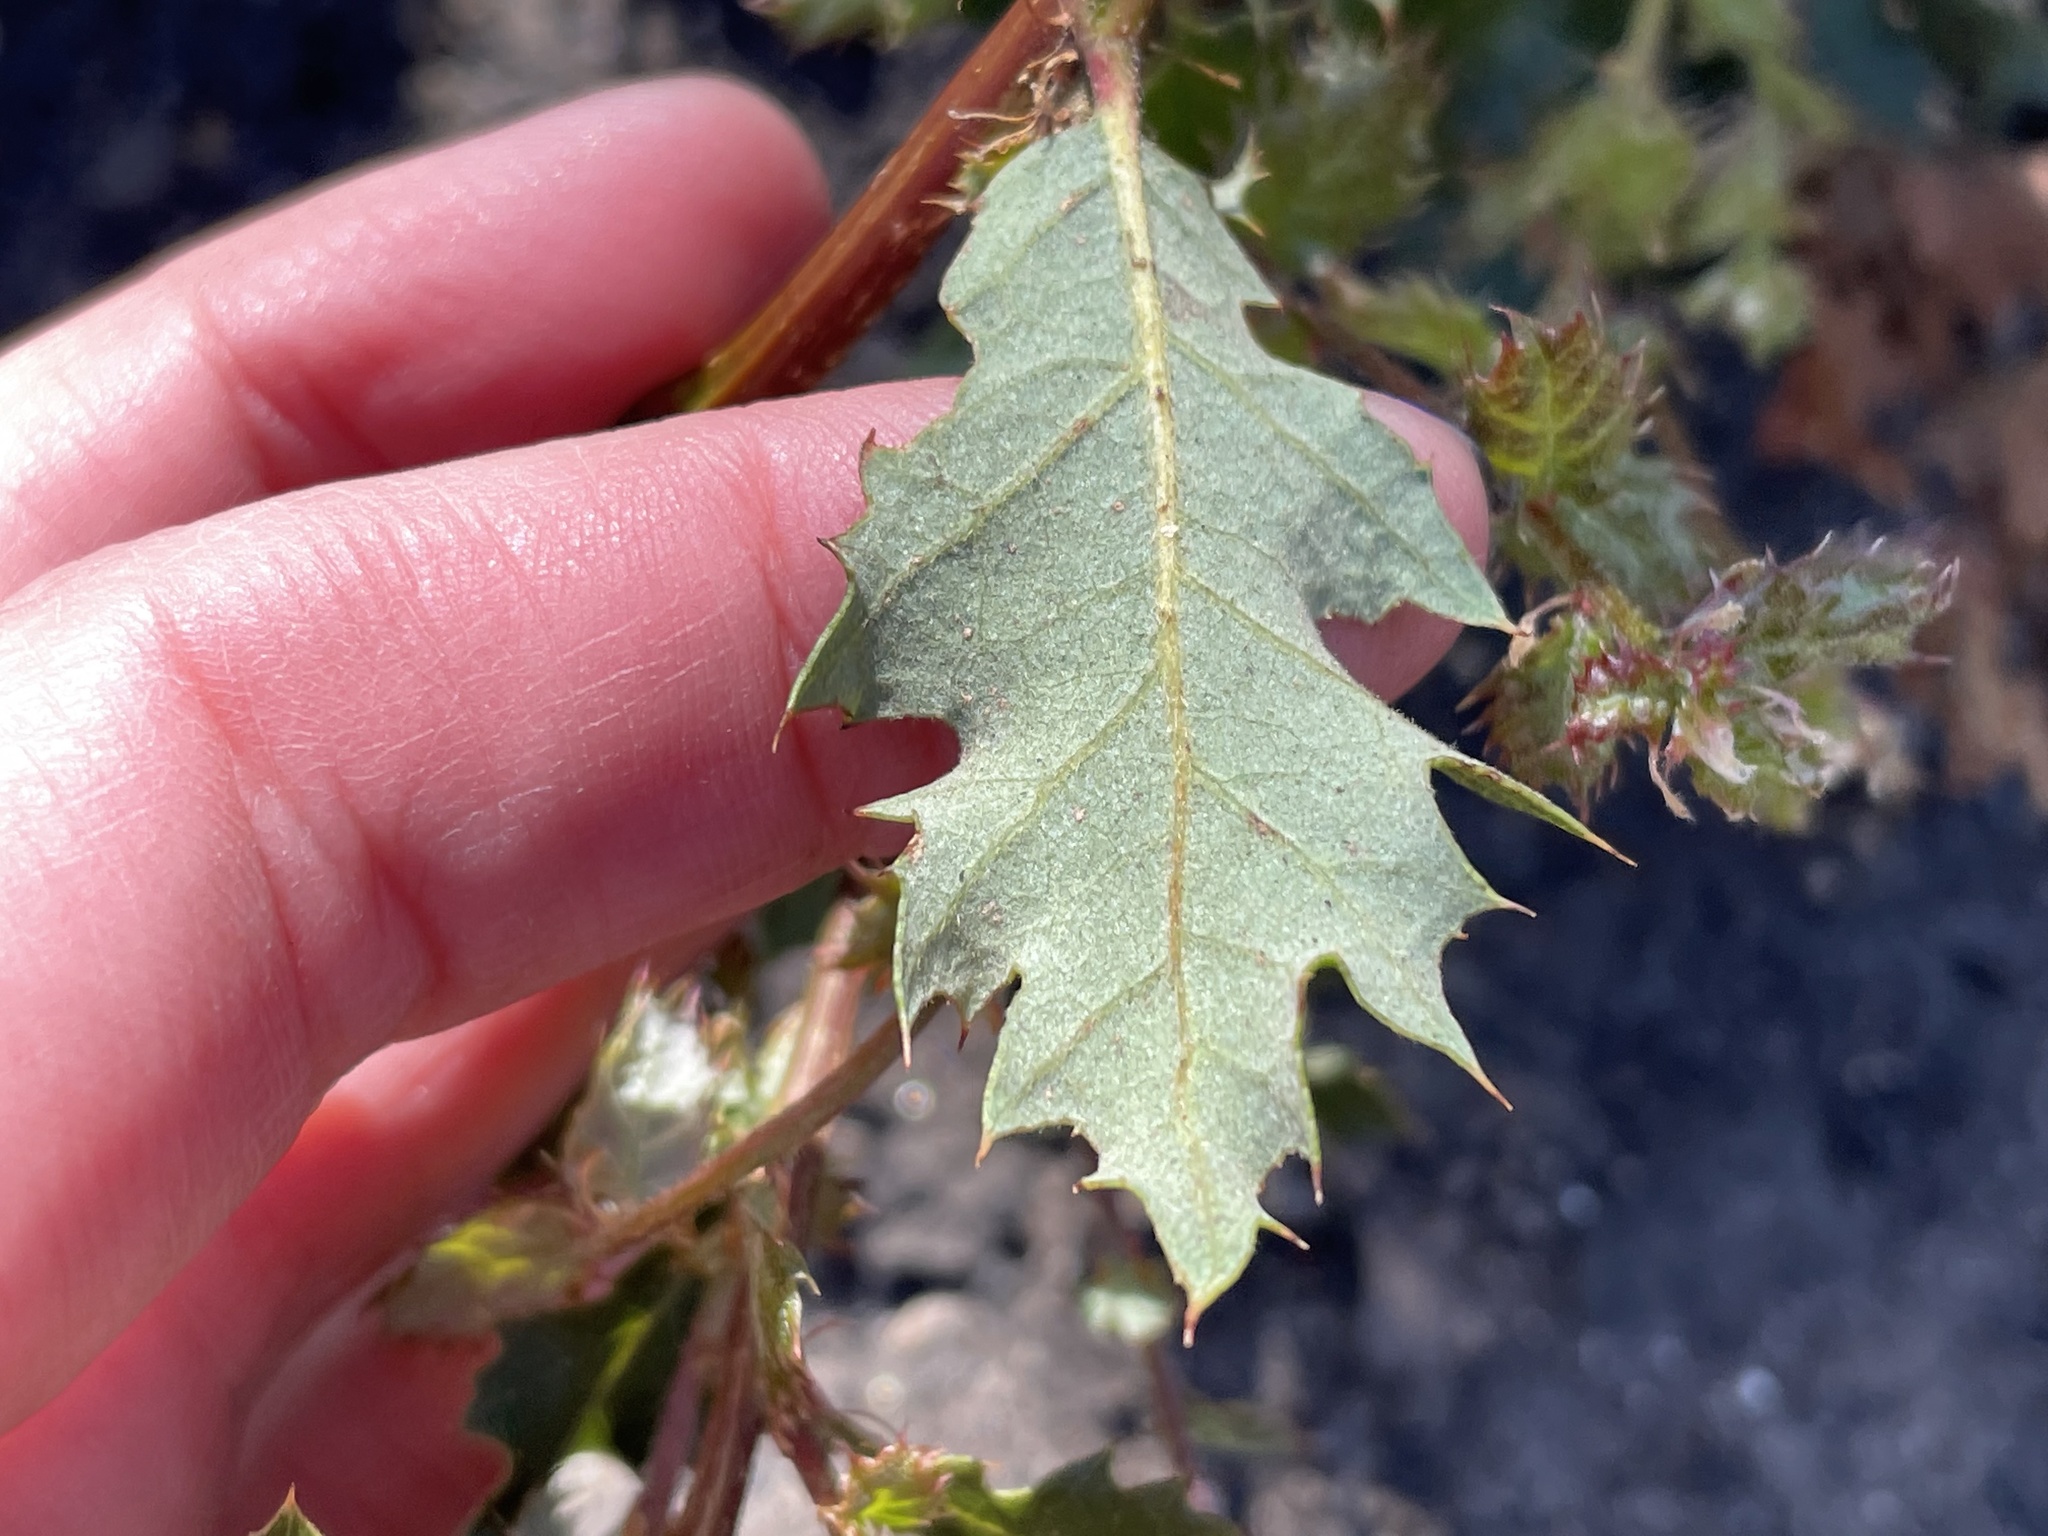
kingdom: Plantae
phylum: Tracheophyta
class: Magnoliopsida
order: Fagales
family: Fagaceae
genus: Quercus
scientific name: Quercus berberidifolia
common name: California scrub oak
